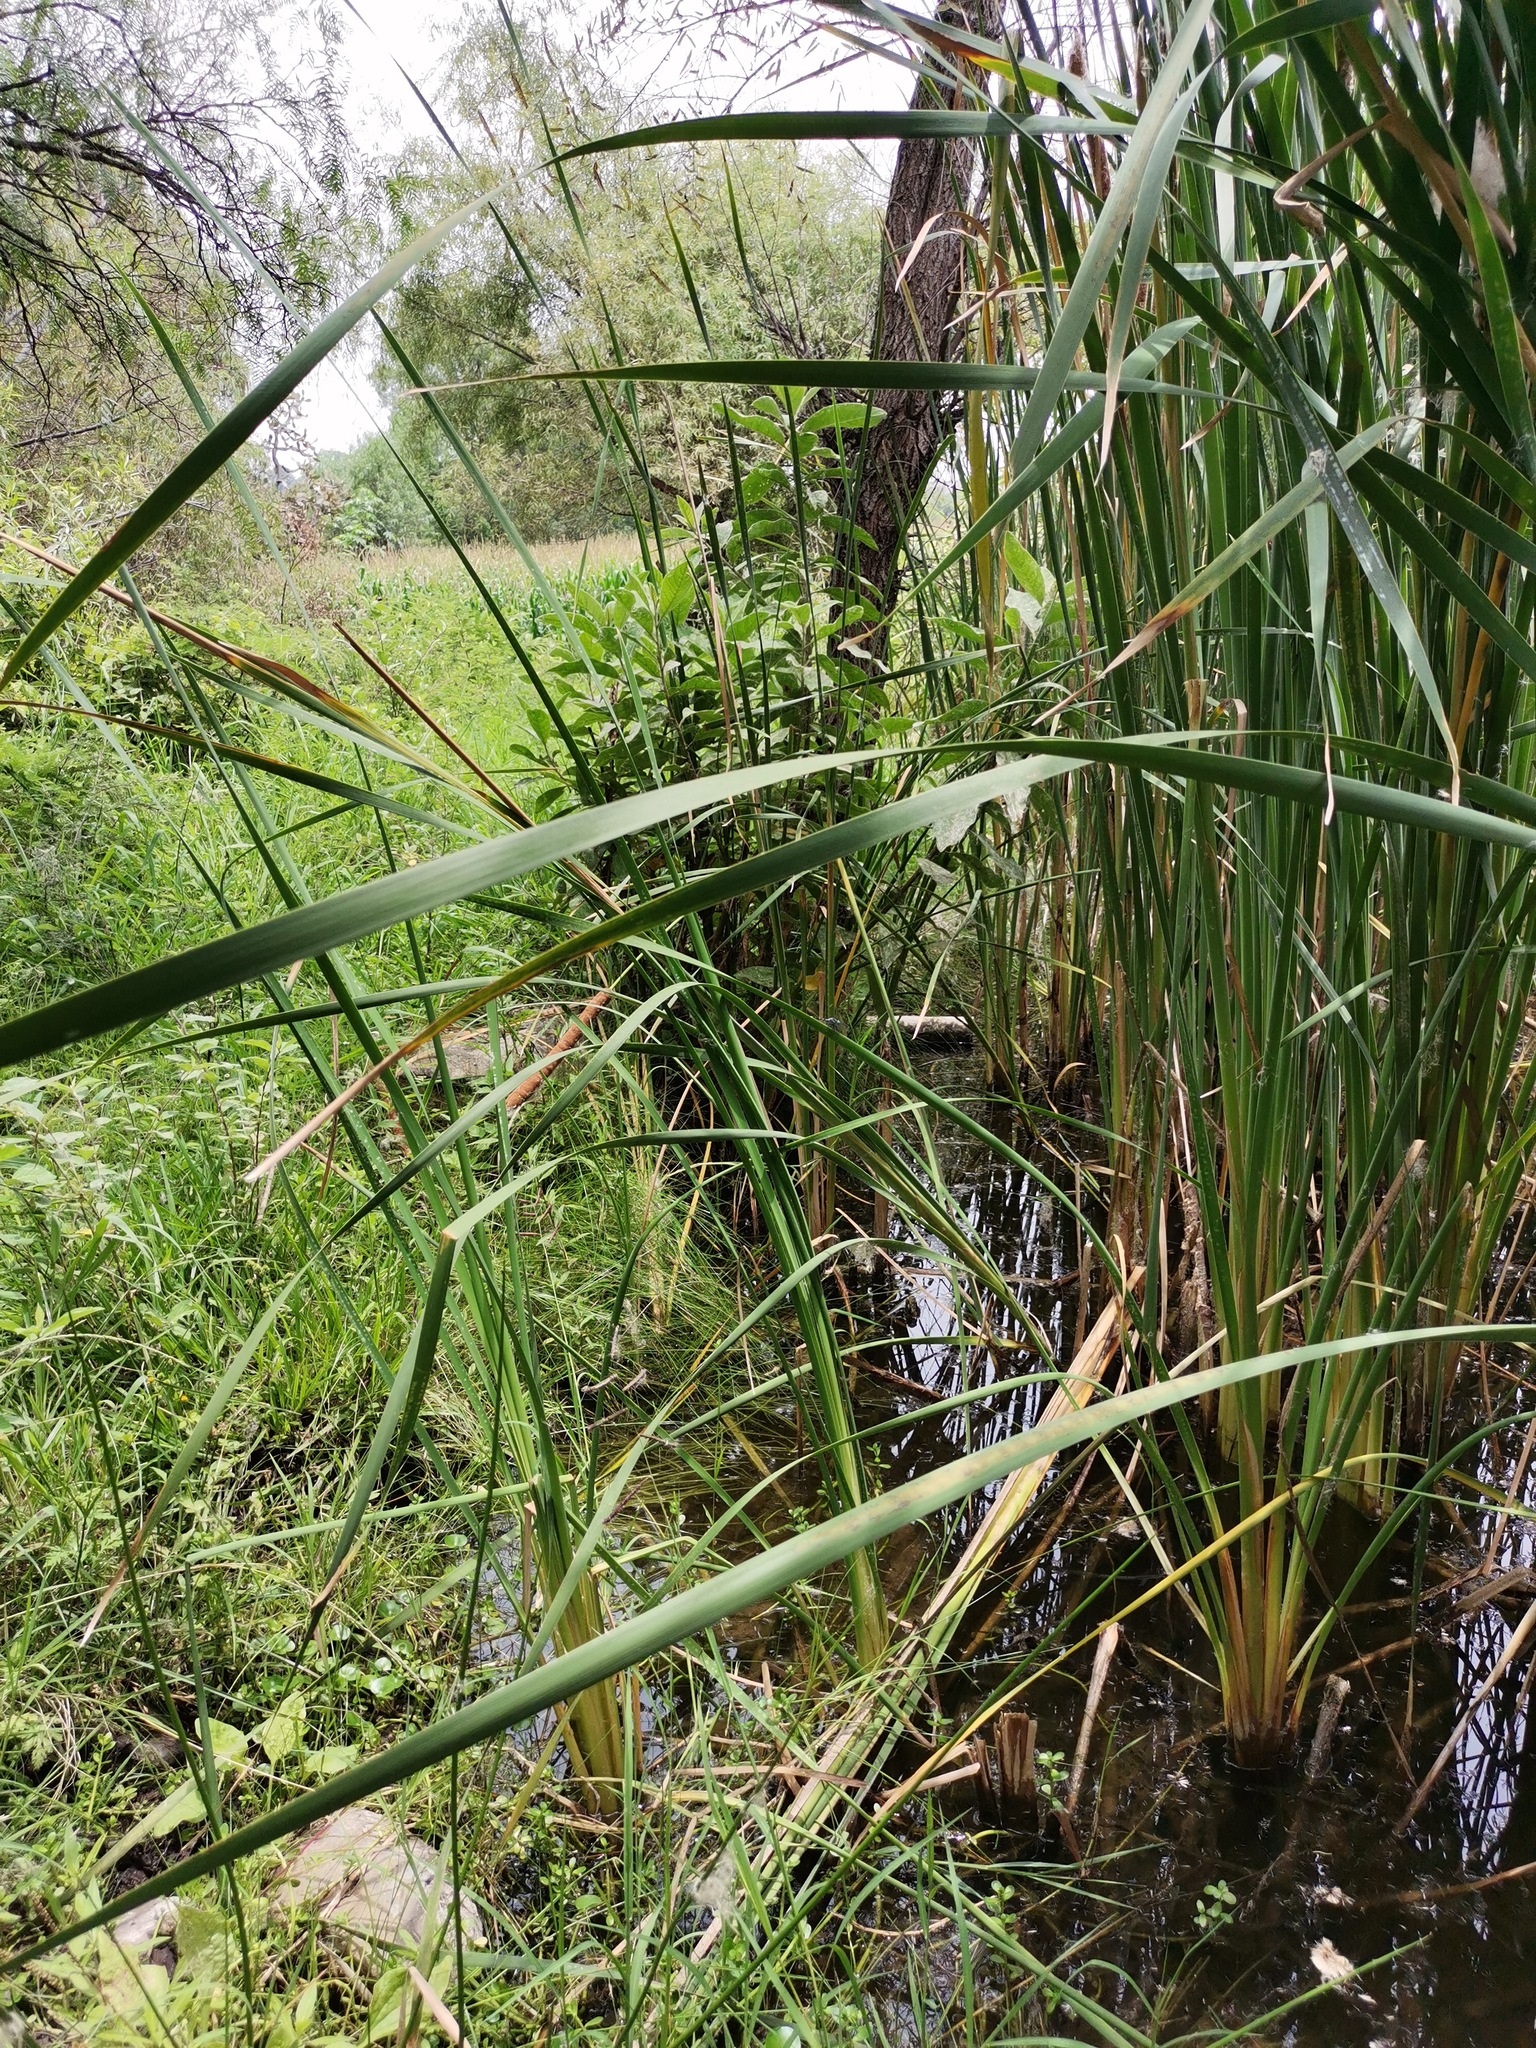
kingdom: Plantae
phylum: Tracheophyta
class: Liliopsida
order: Poales
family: Typhaceae
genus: Typha
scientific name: Typha domingensis
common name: Southern cattail
